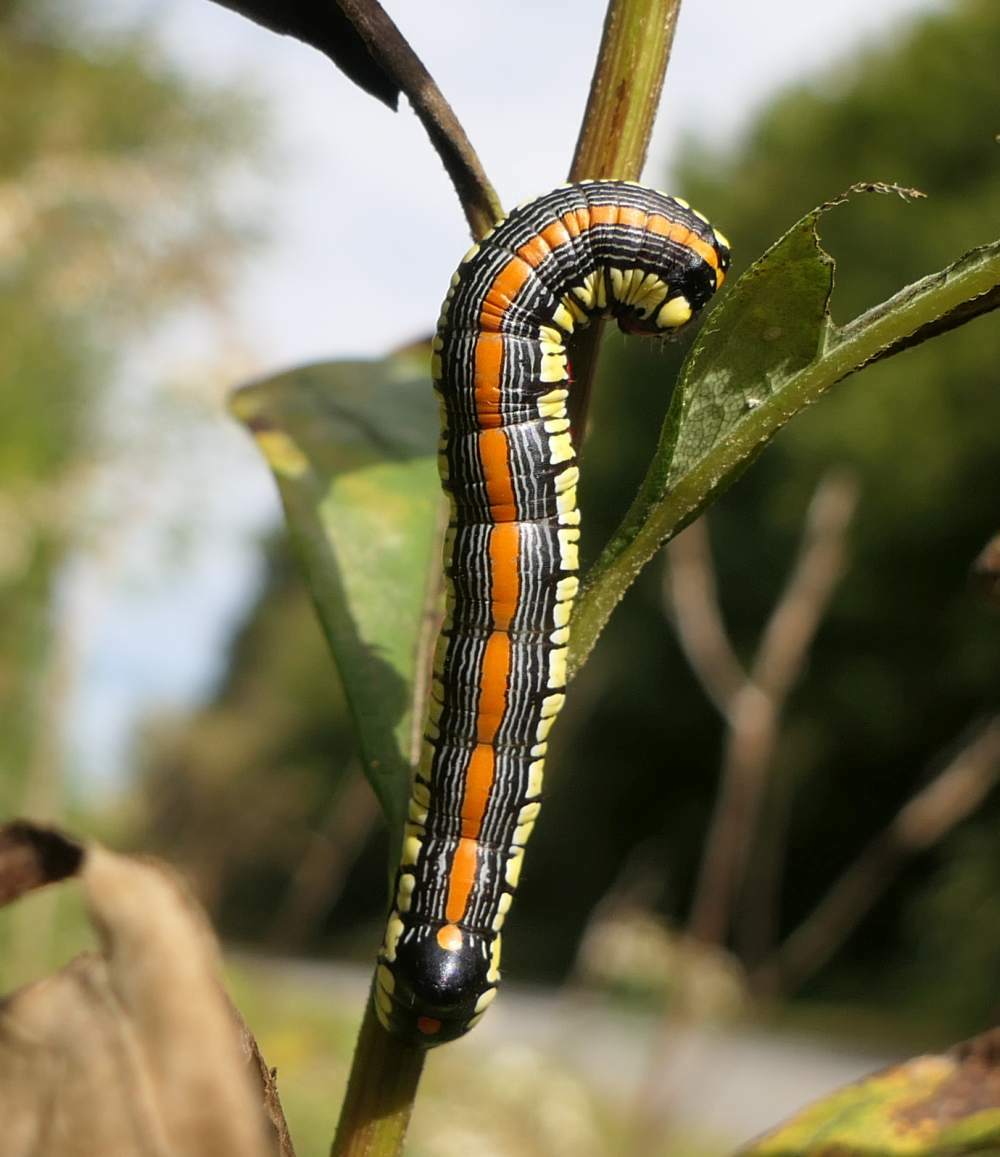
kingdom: Animalia
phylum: Arthropoda
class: Insecta
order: Lepidoptera
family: Noctuidae
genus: Cucullia
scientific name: Cucullia convexipennis
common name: Brown-hooded owlet
